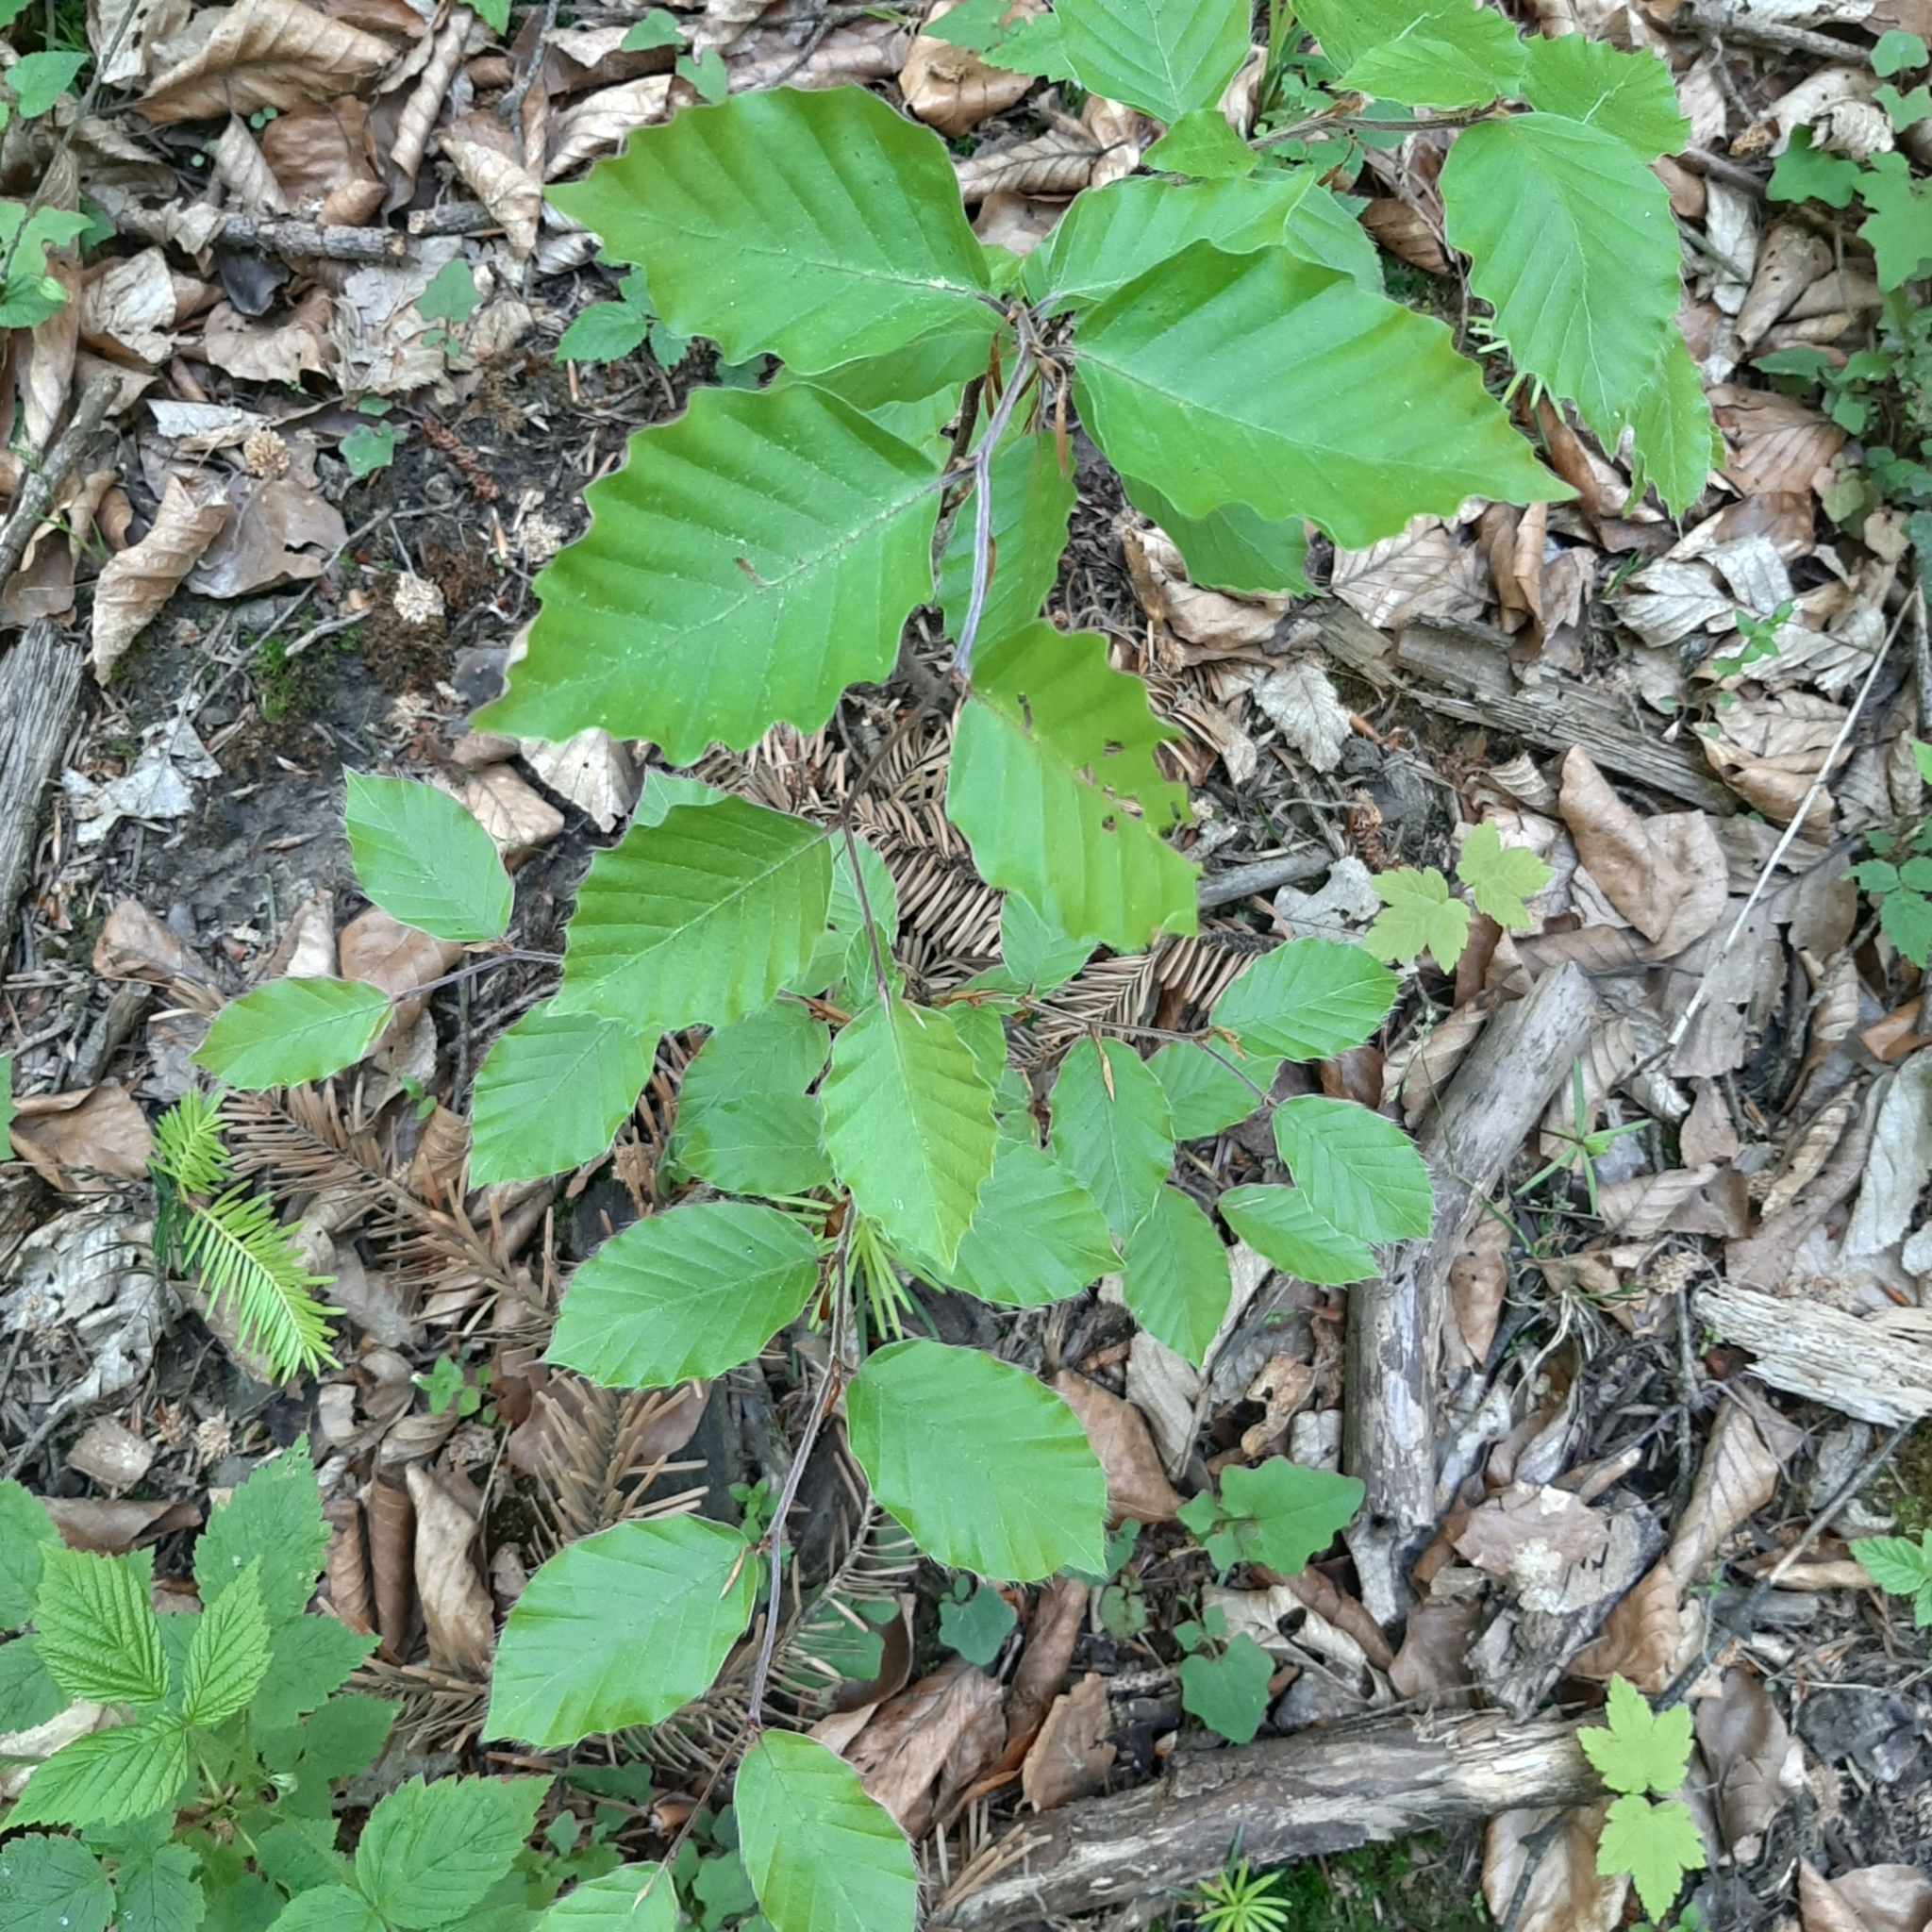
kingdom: Plantae
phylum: Tracheophyta
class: Magnoliopsida
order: Fagales
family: Fagaceae
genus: Fagus
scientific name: Fagus sylvatica
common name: Beech
